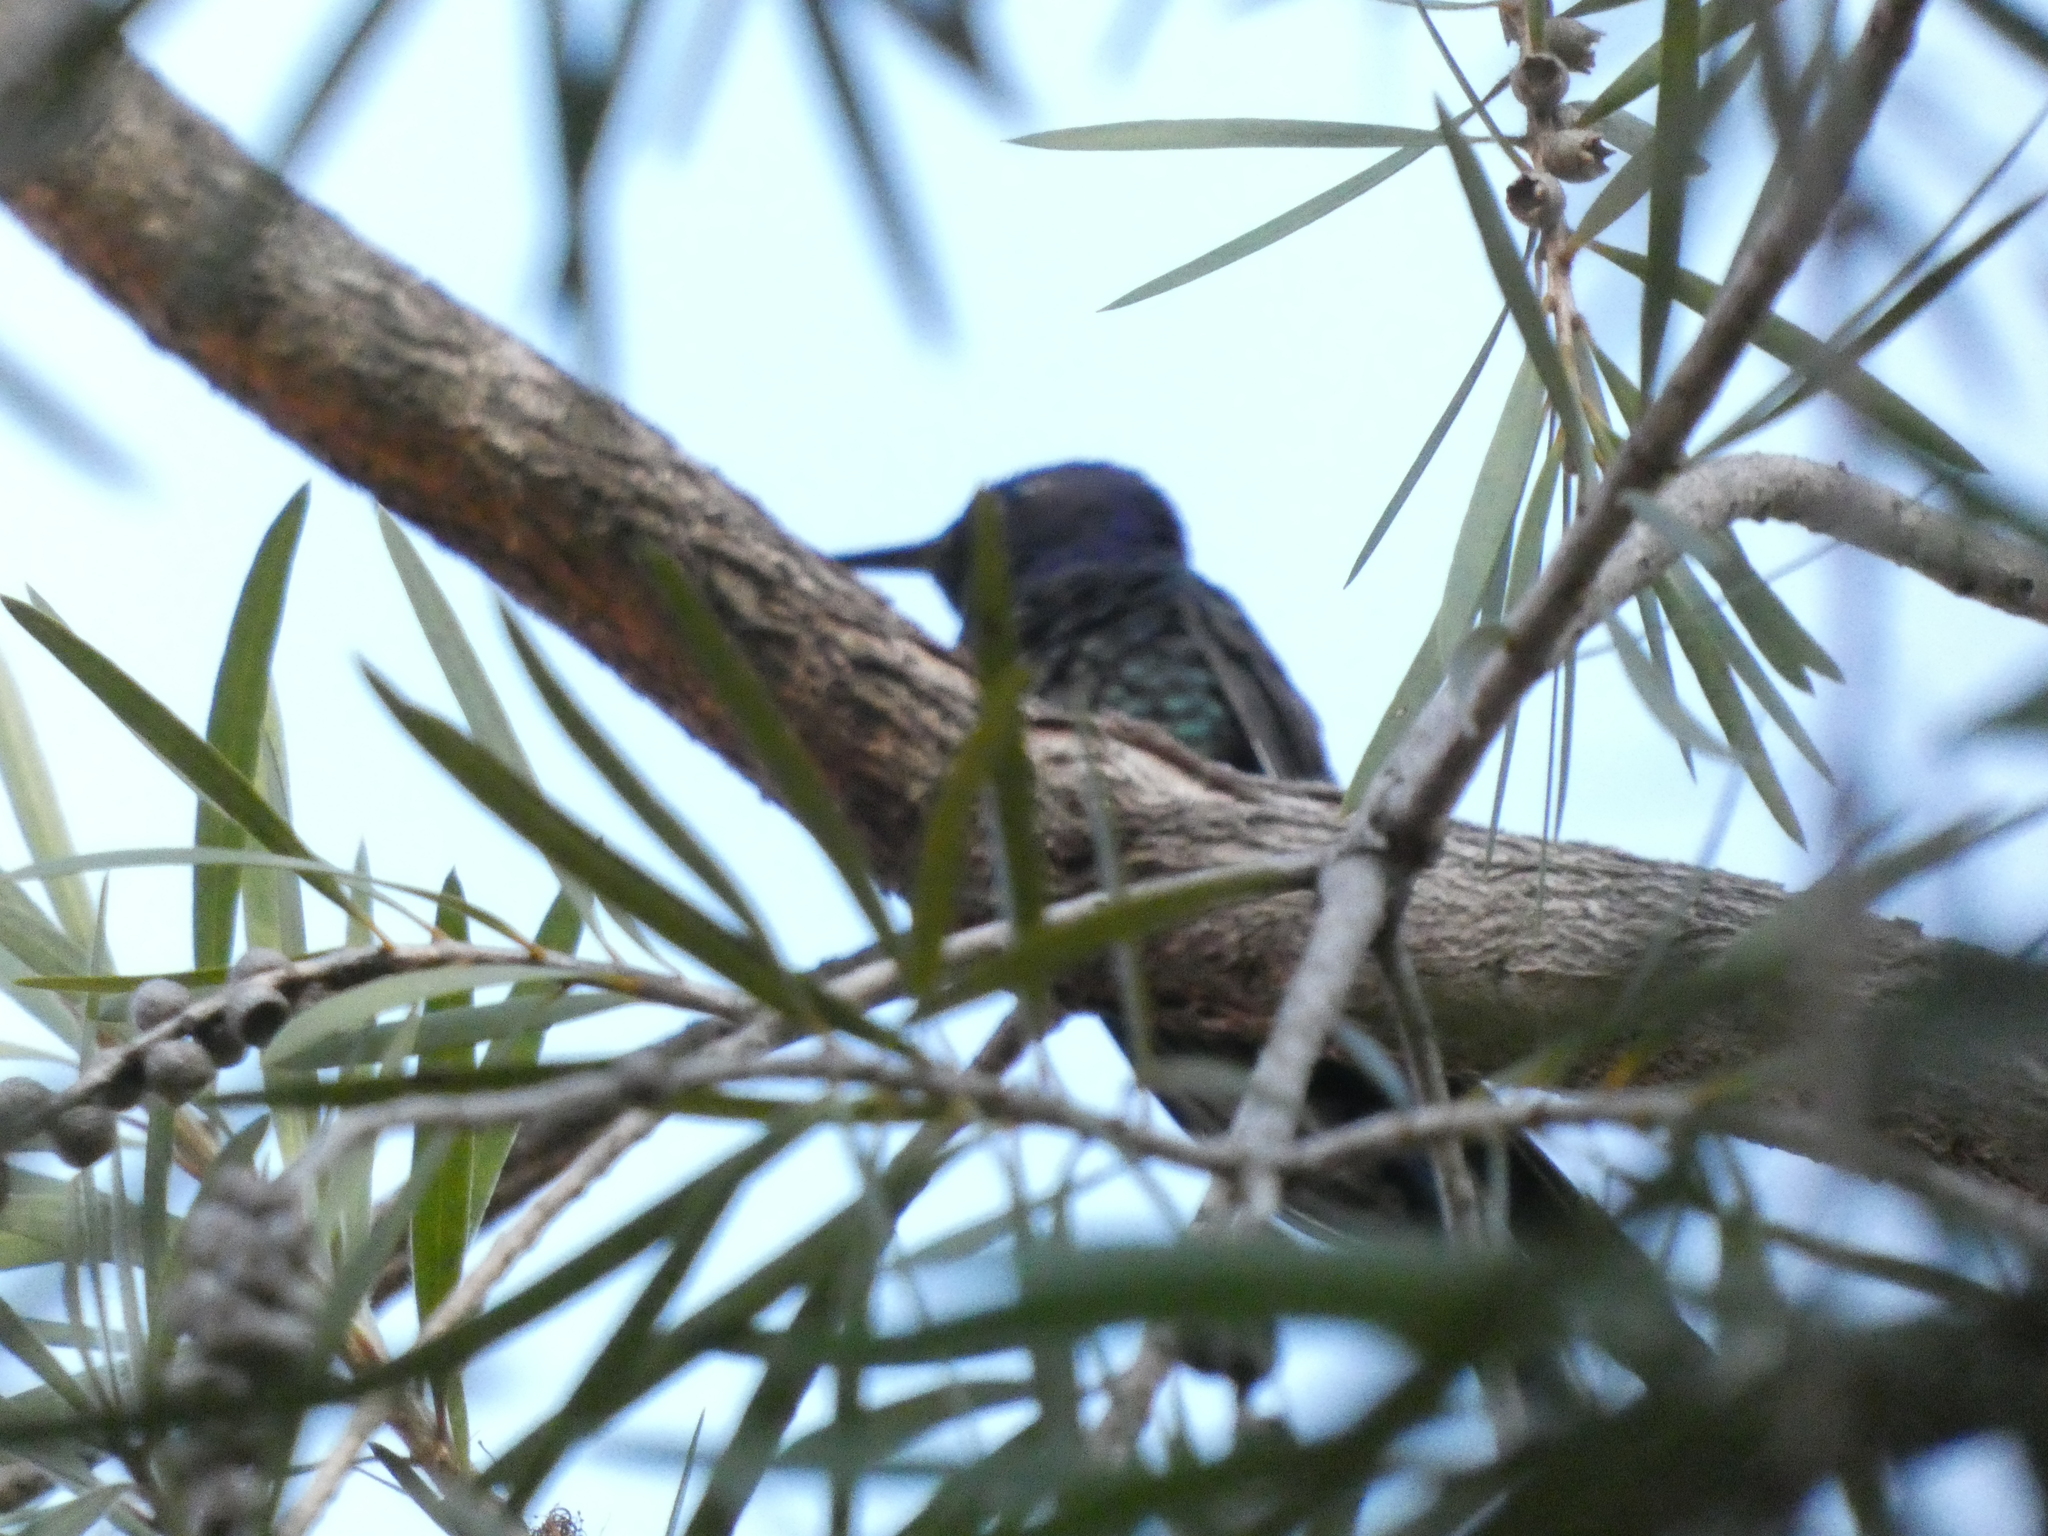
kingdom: Animalia
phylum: Chordata
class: Aves
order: Apodiformes
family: Trochilidae
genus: Eupetomena
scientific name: Eupetomena macroura
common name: Swallow-tailed hummingbird
